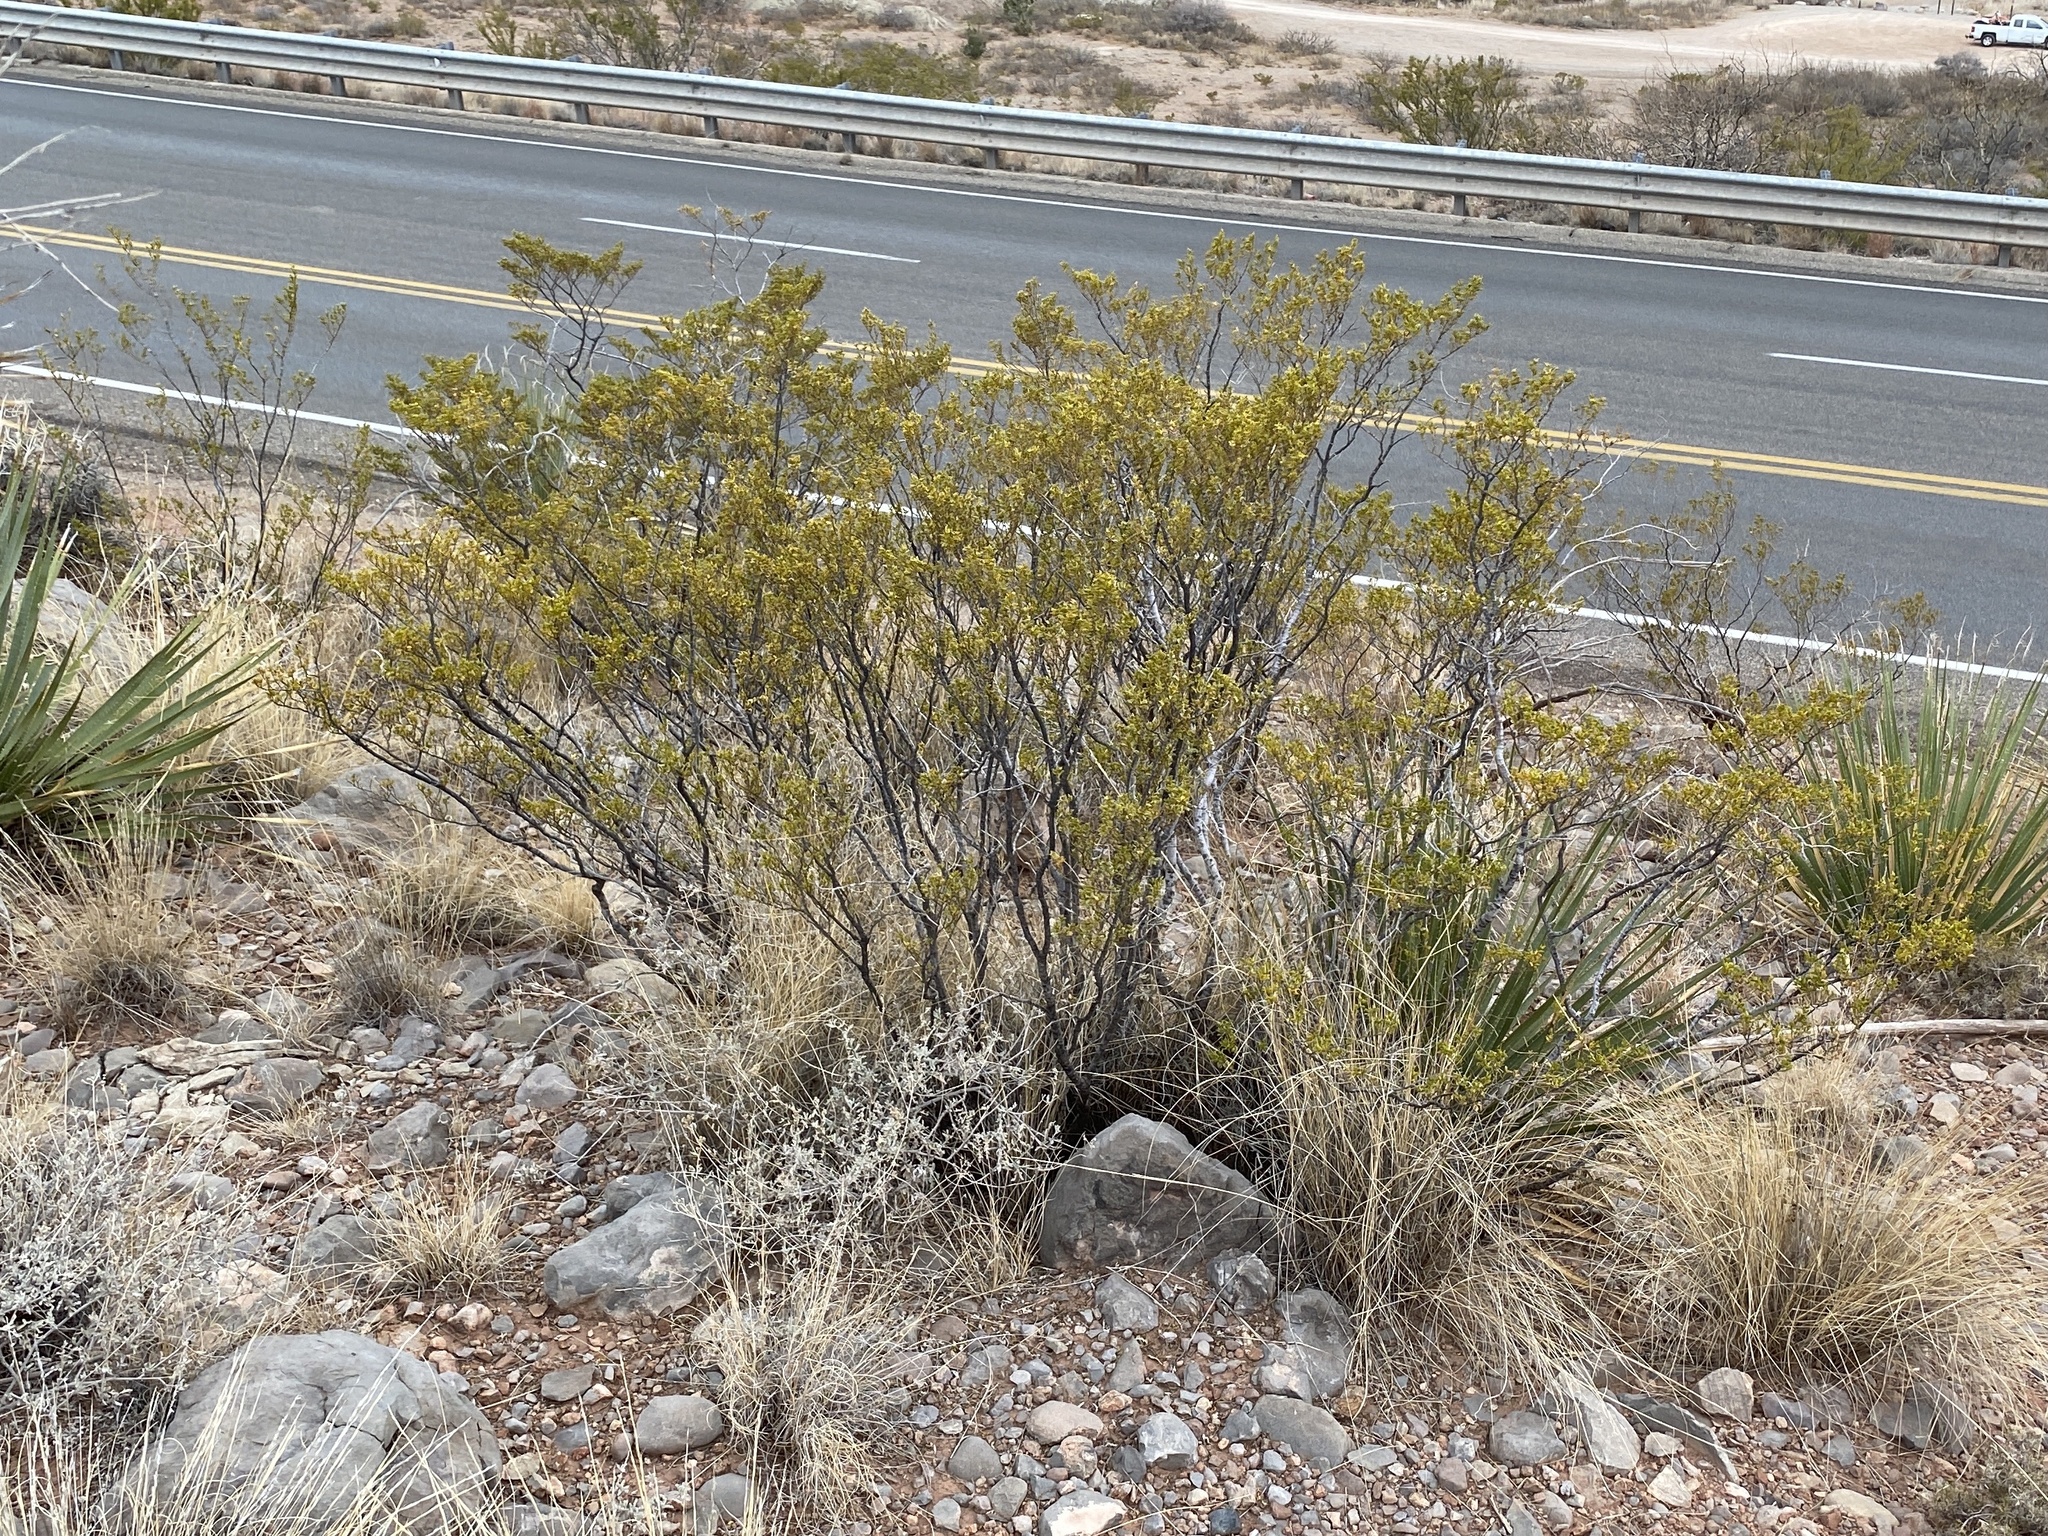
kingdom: Plantae
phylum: Tracheophyta
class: Magnoliopsida
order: Zygophyllales
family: Zygophyllaceae
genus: Larrea
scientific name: Larrea tridentata
